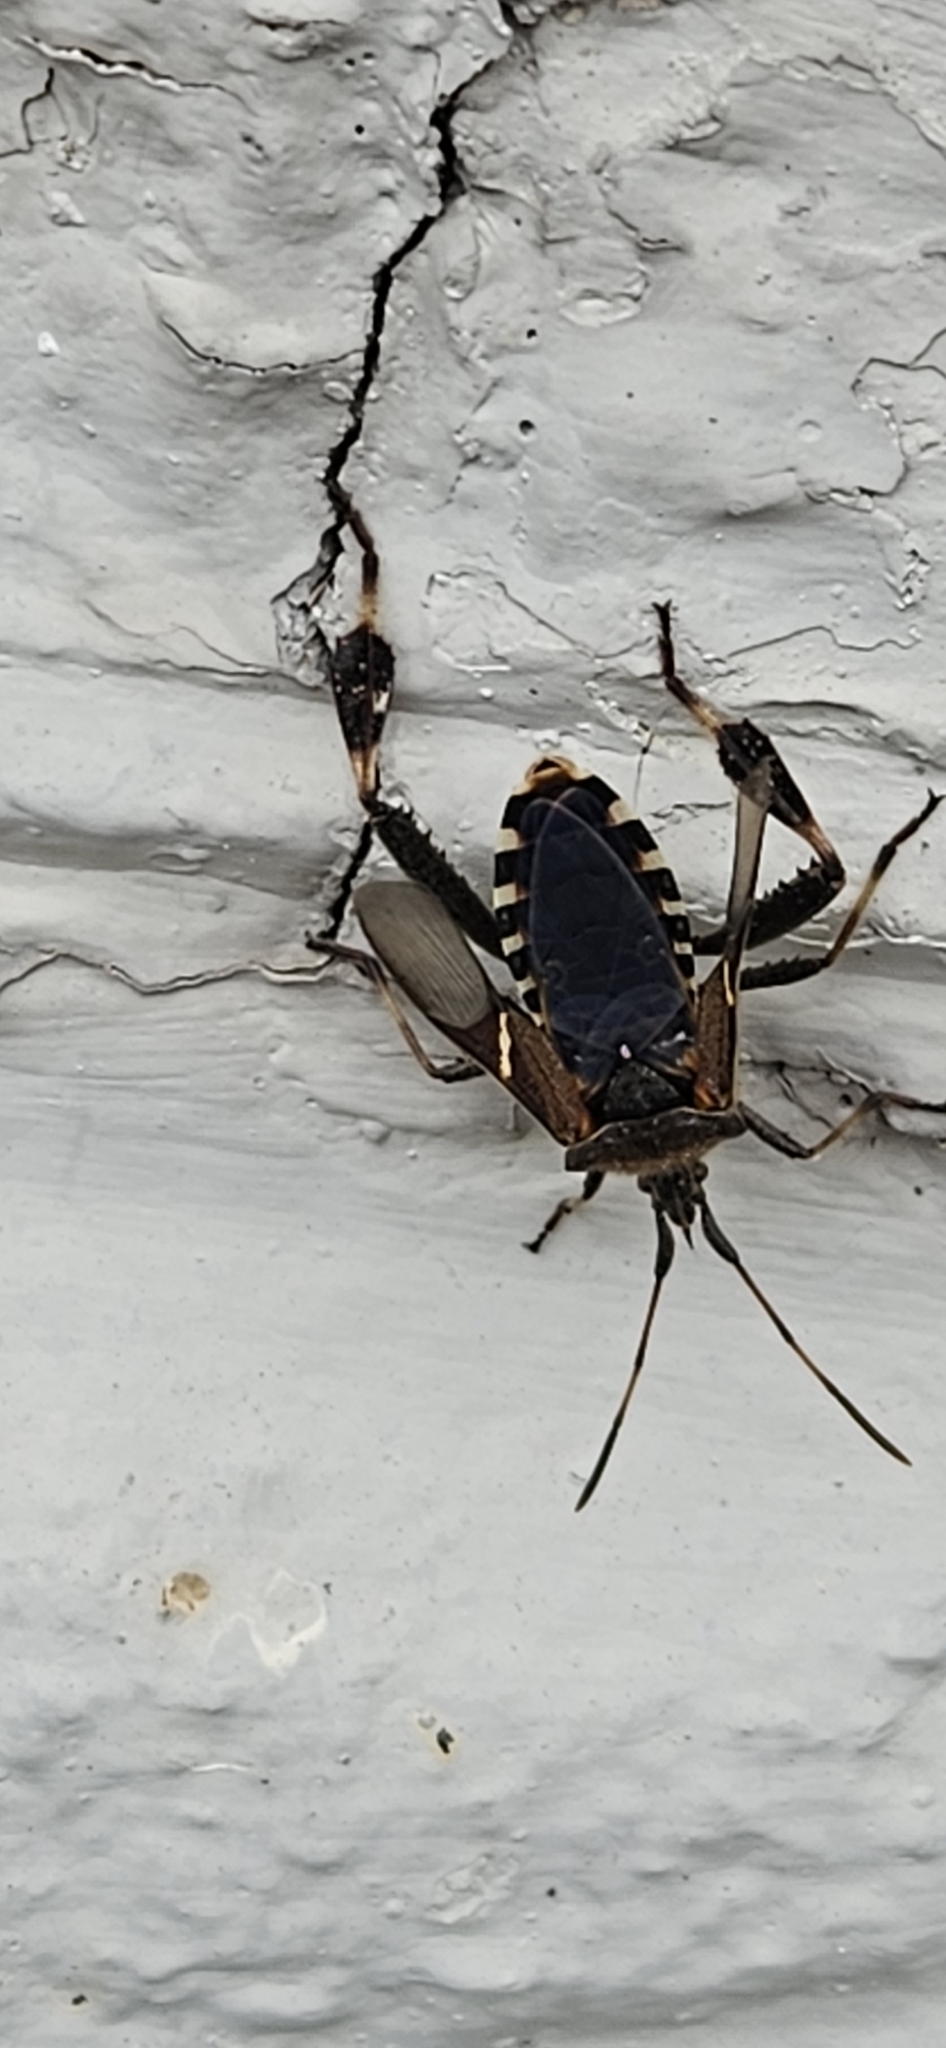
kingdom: Animalia
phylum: Arthropoda
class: Insecta
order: Hemiptera
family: Coreidae
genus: Leptoglossus
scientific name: Leptoglossus clypealis
